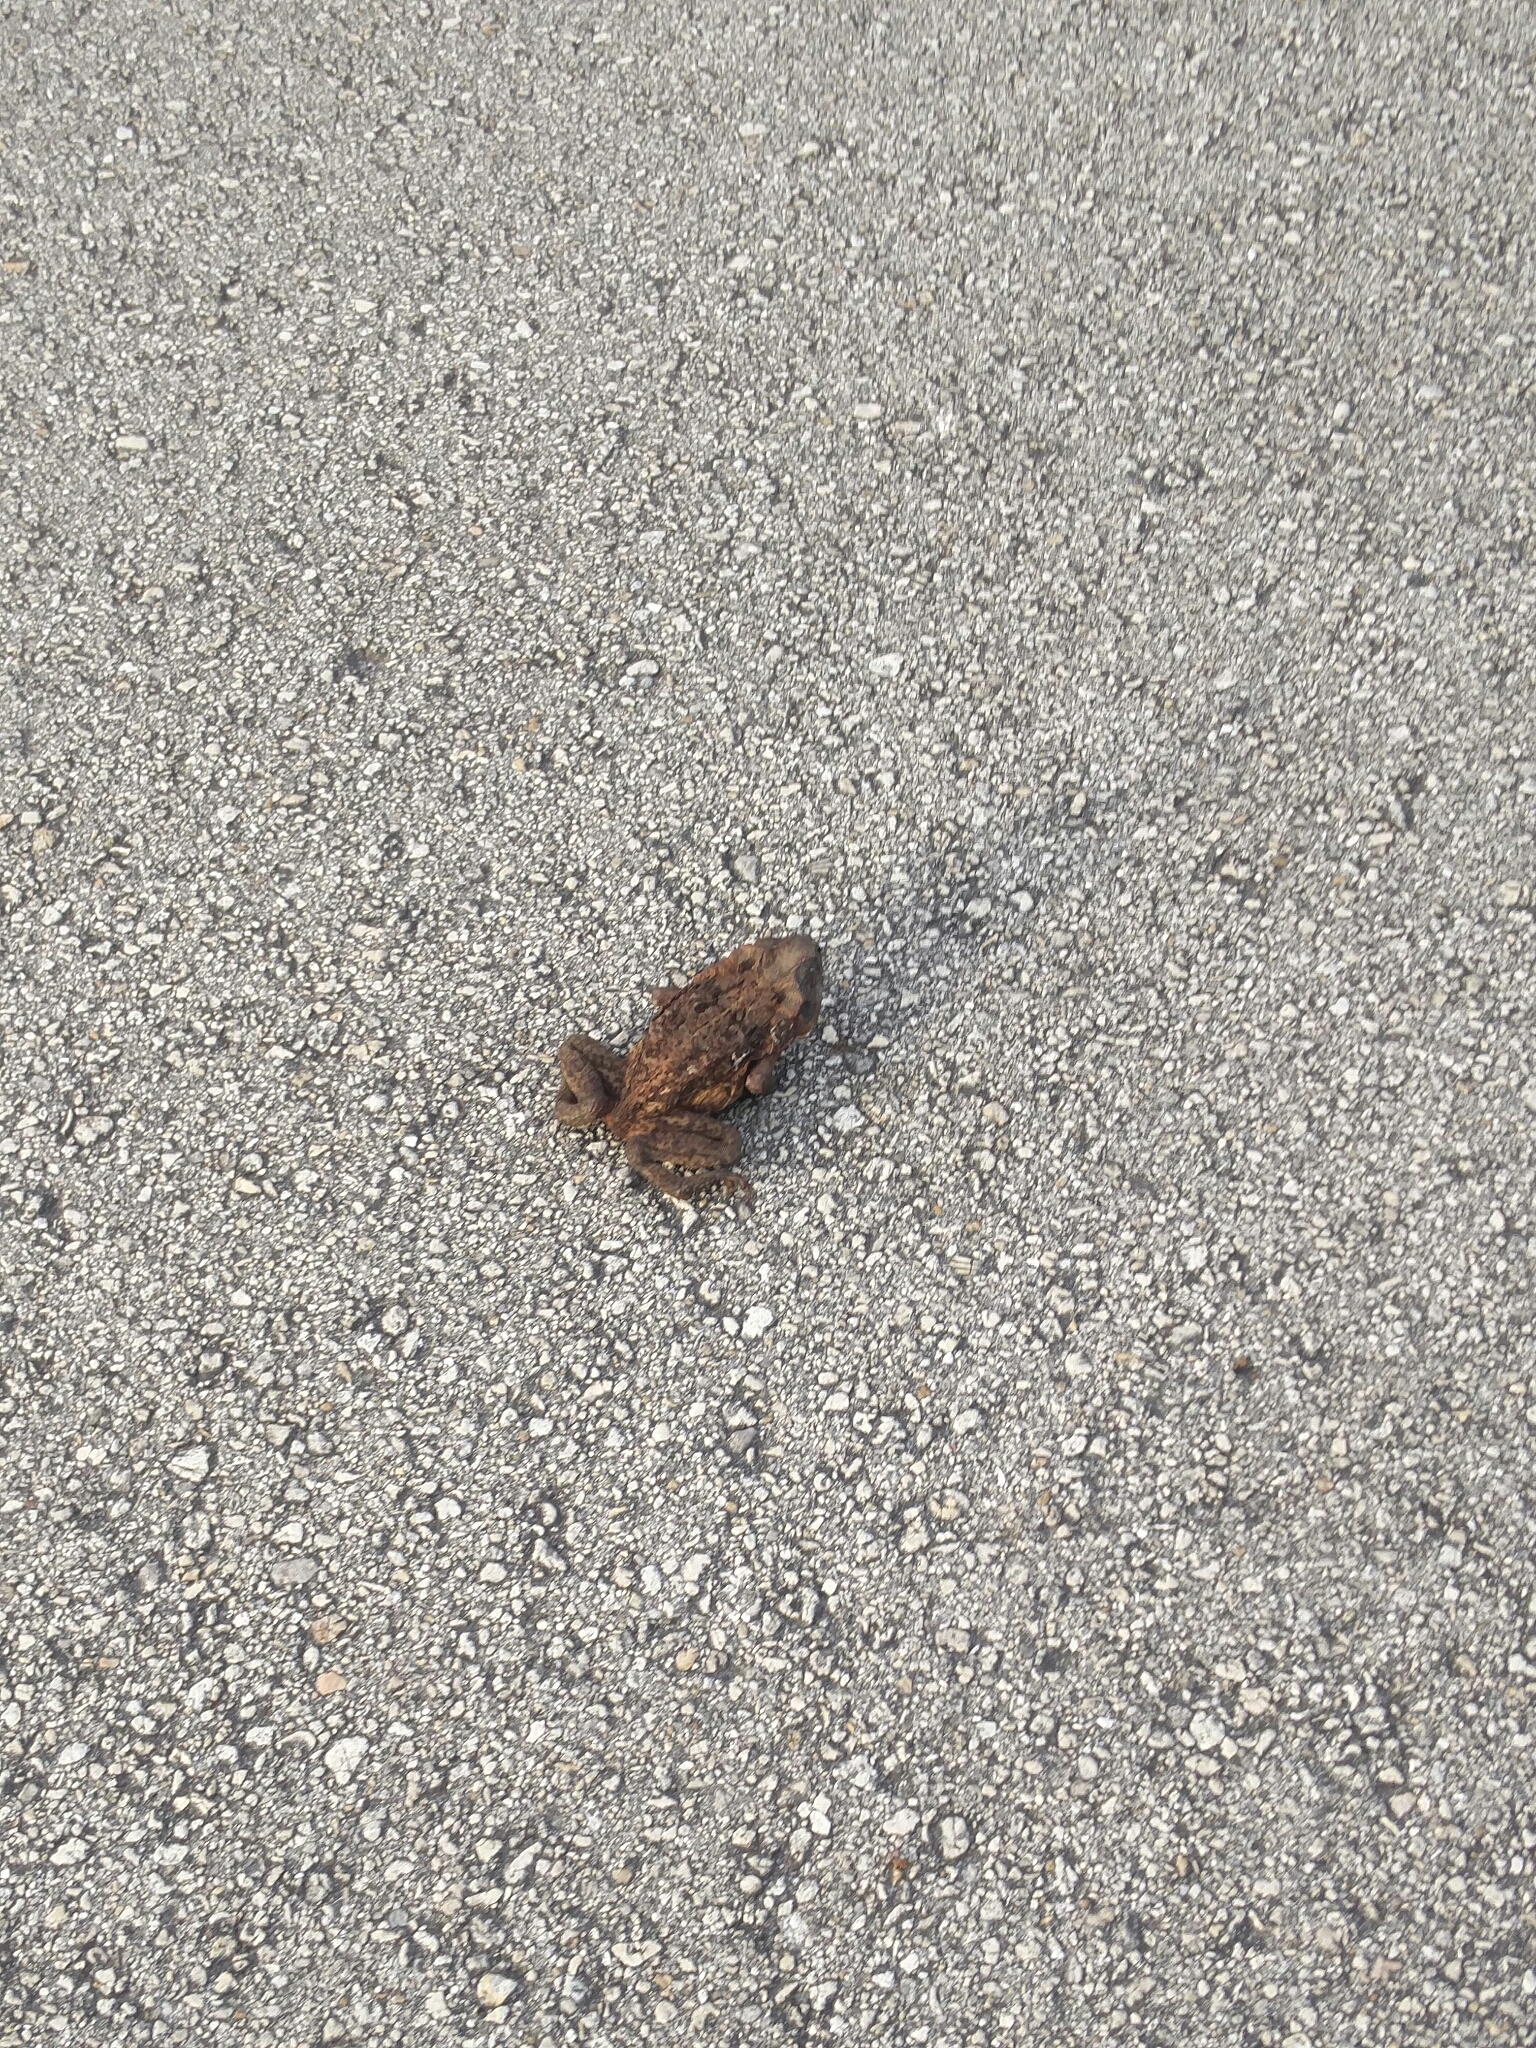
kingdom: Animalia
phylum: Chordata
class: Amphibia
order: Anura
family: Bufonidae
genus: Rhinella
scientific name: Rhinella marina
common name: Cane toad
